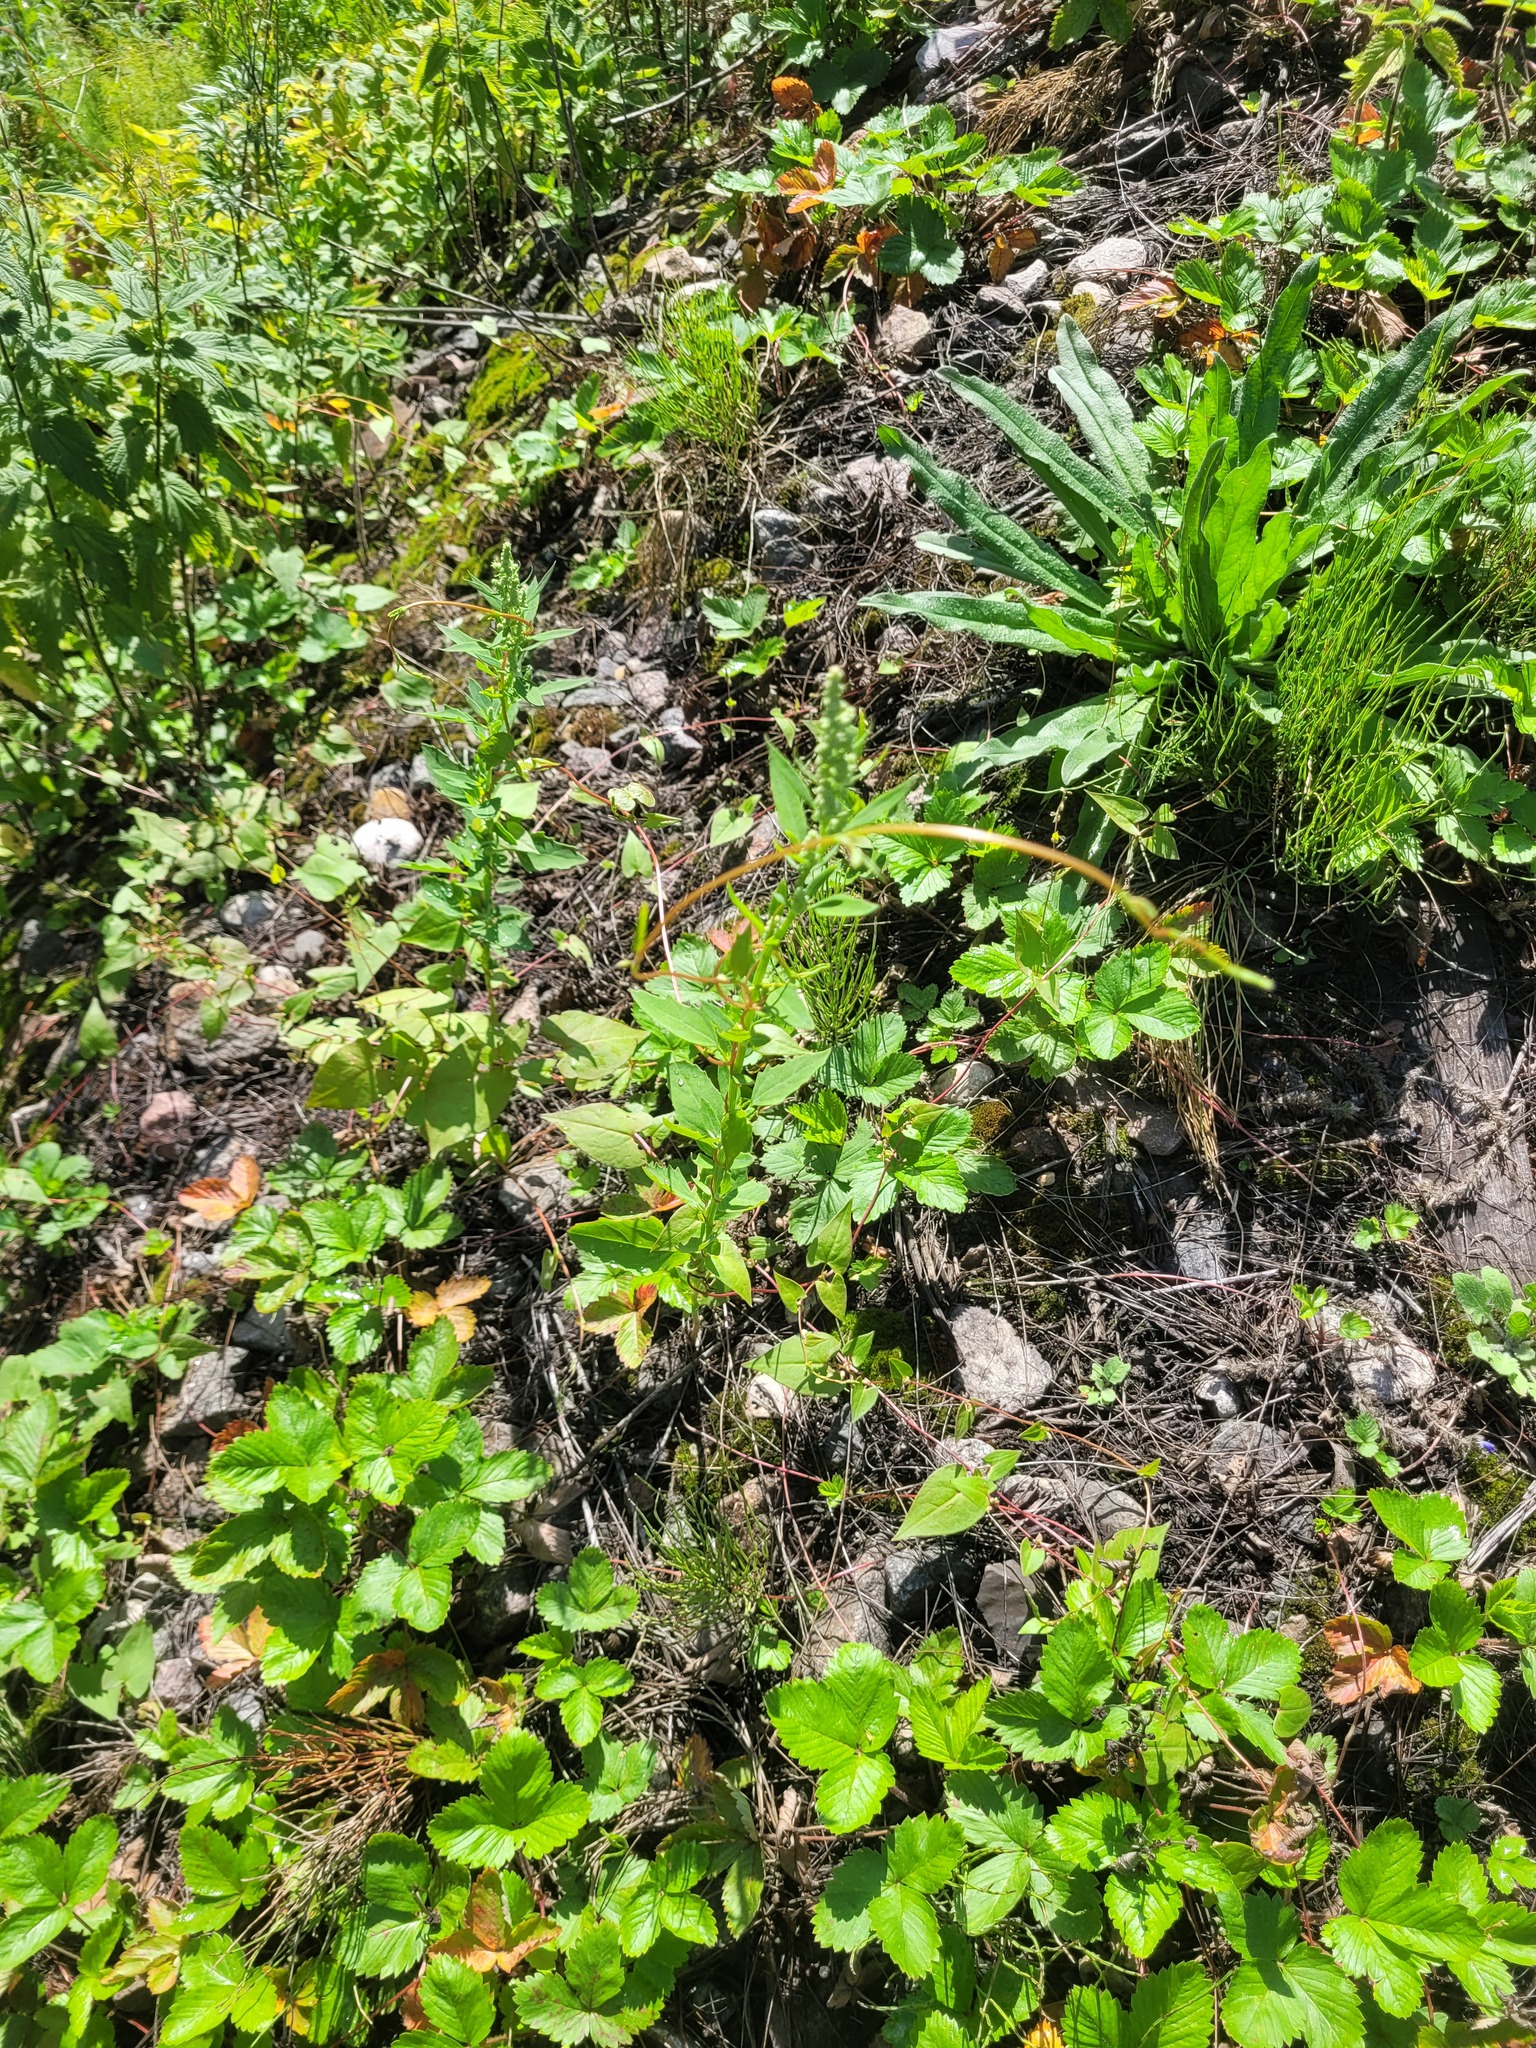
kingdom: Plantae
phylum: Tracheophyta
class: Magnoliopsida
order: Caryophyllales
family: Amaranthaceae
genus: Chenopodium
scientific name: Chenopodium album
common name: Fat-hen
